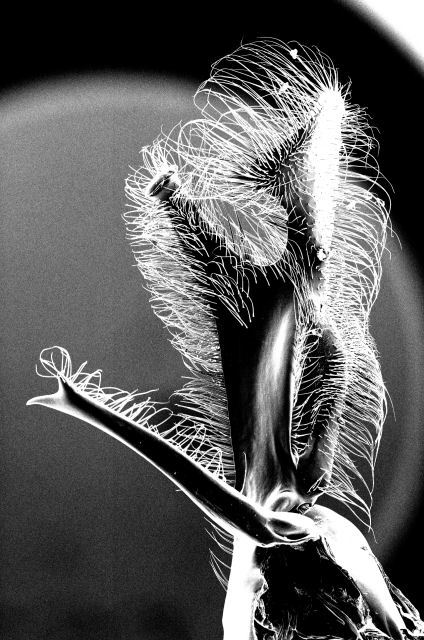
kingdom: Animalia
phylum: Arthropoda
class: Insecta
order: Hymenoptera
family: Formicidae
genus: Neivamyrmex
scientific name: Neivamyrmex andrei
